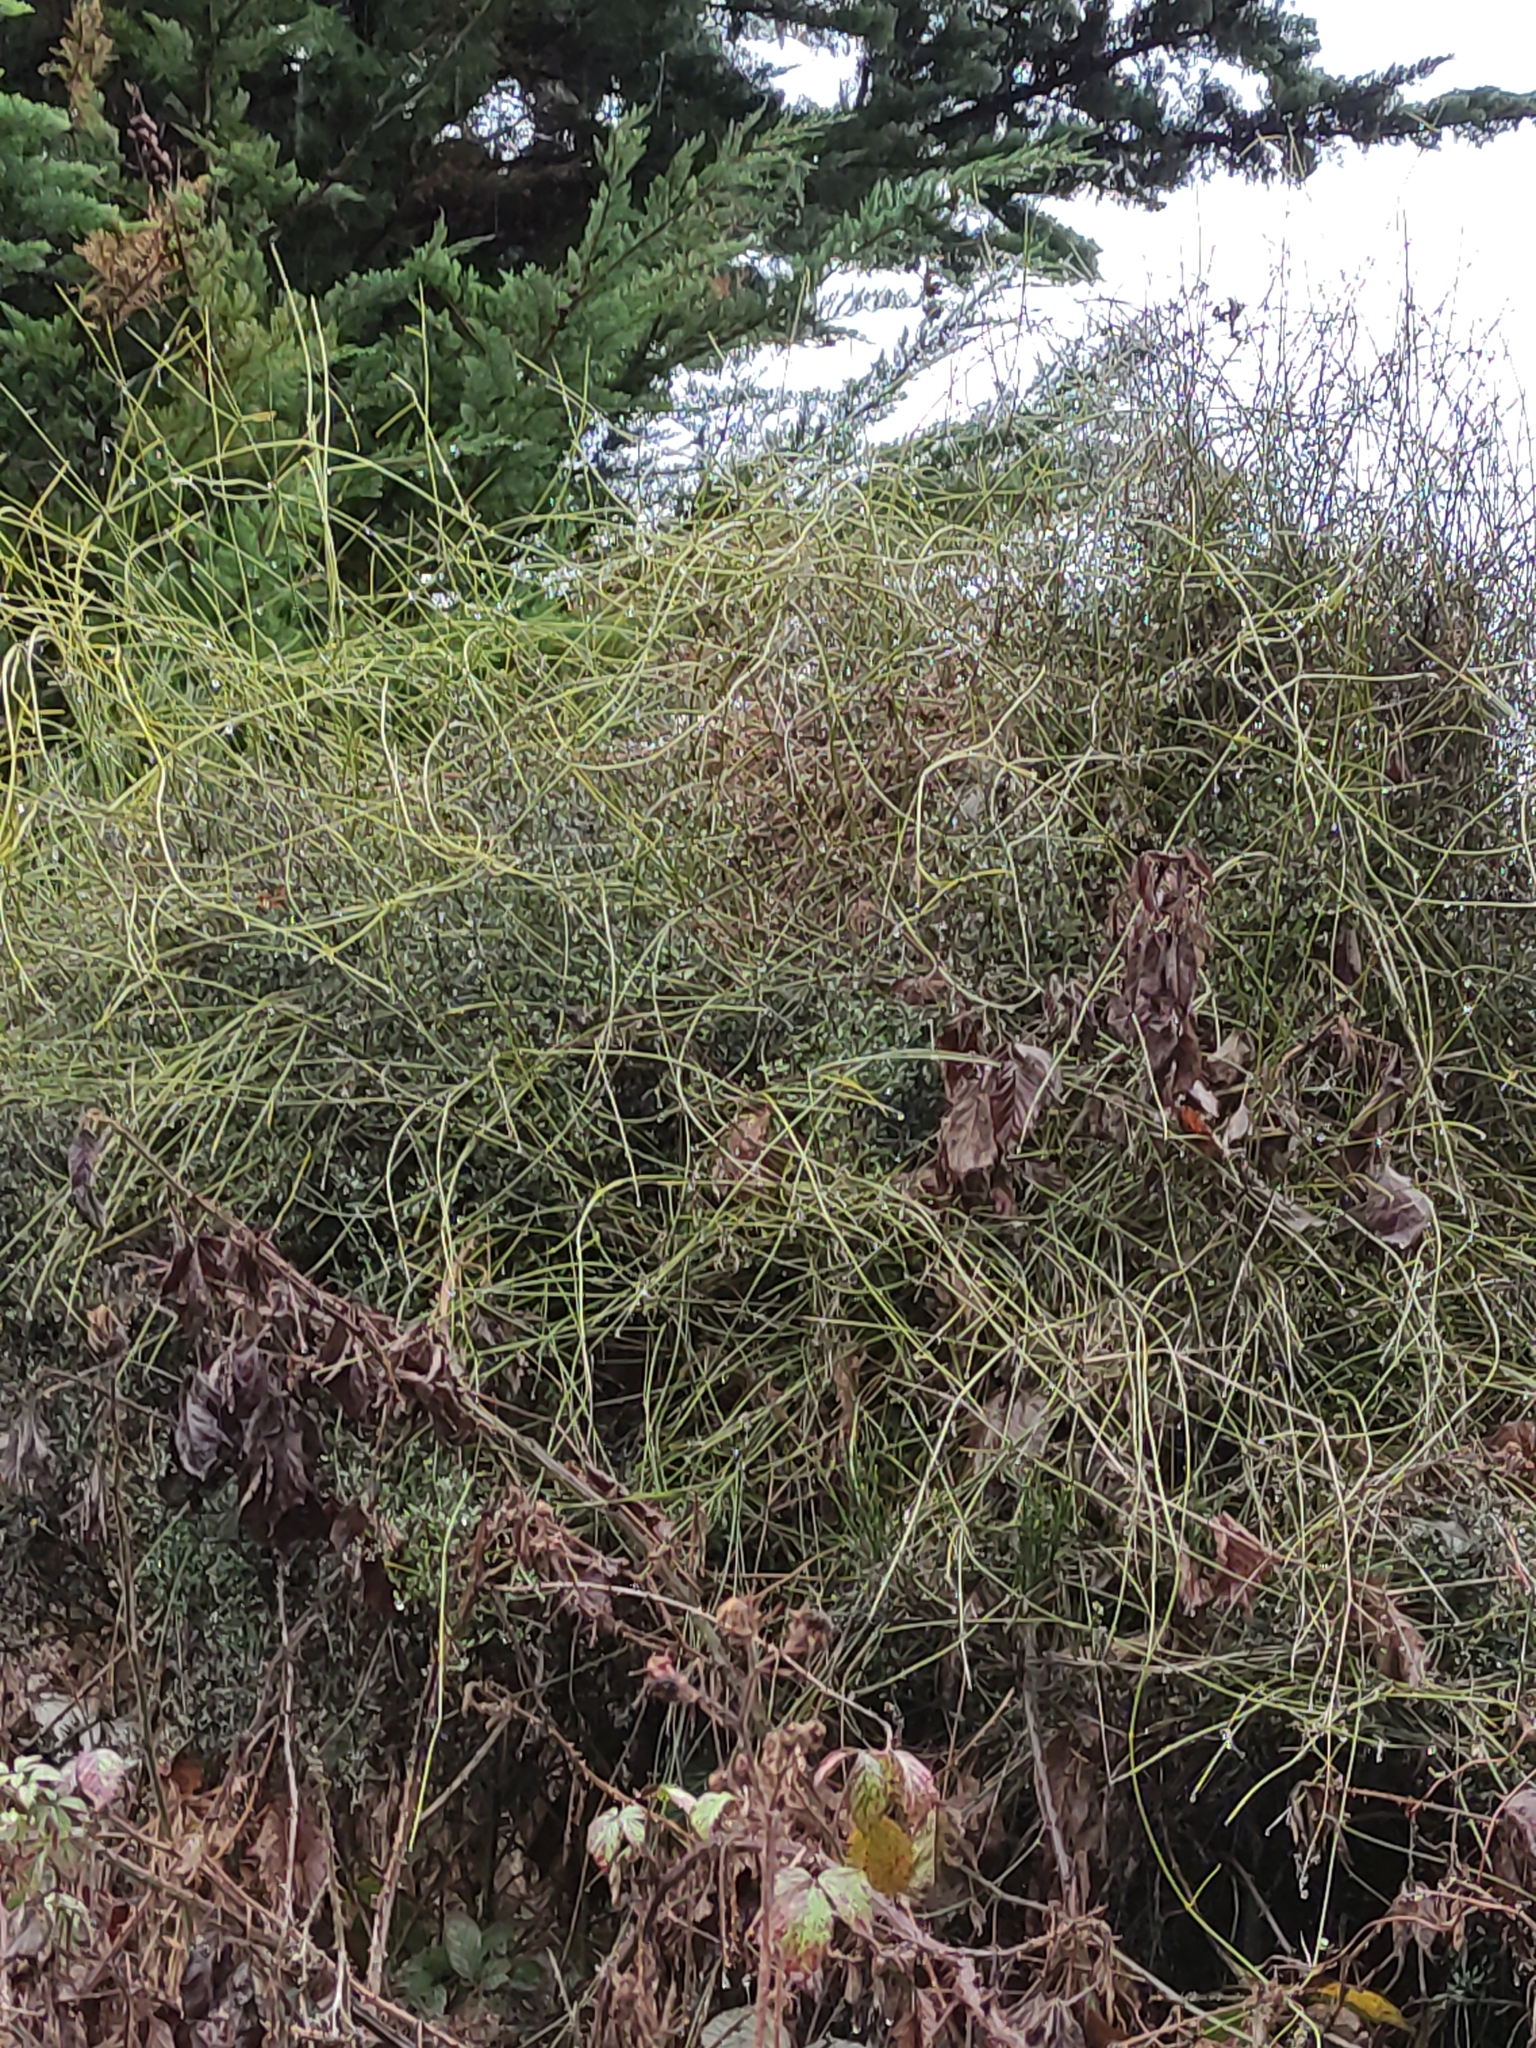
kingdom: Plantae
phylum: Tracheophyta
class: Magnoliopsida
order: Ranunculales
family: Ranunculaceae
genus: Clematis
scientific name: Clematis afoliata
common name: Rush-stem clematis
